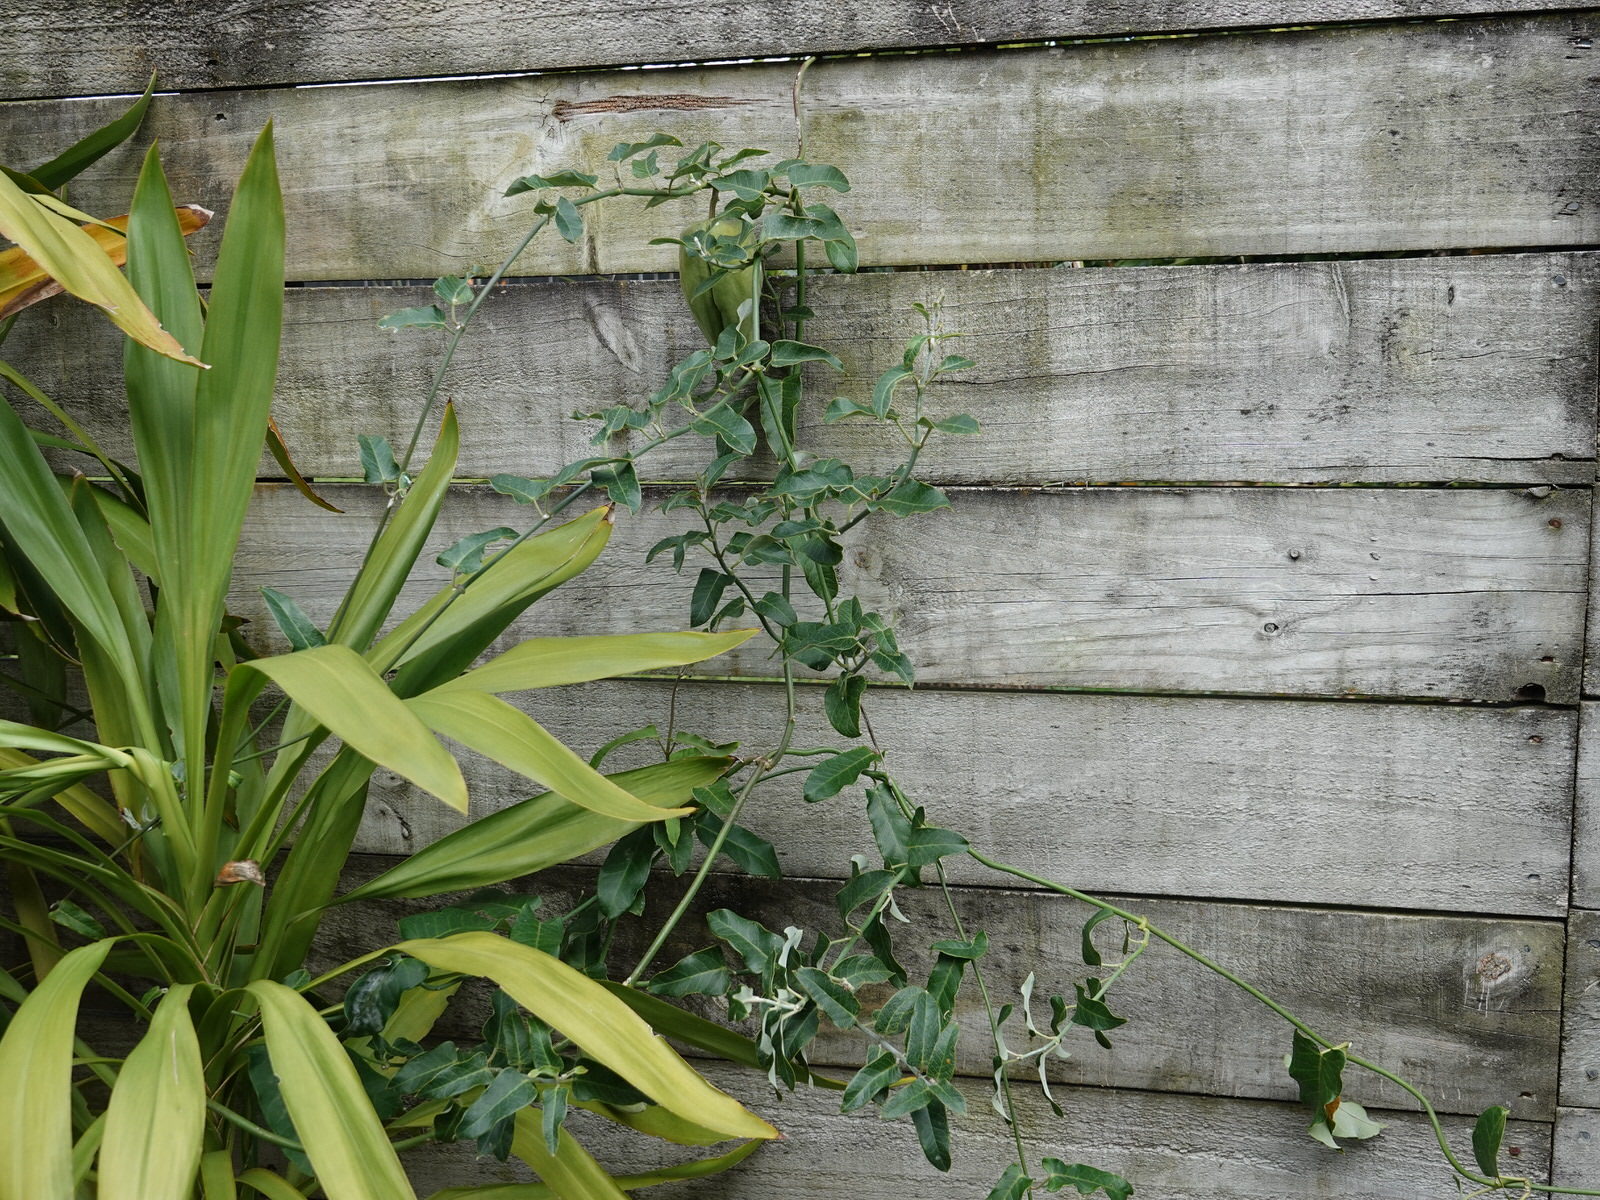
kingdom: Plantae
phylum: Tracheophyta
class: Magnoliopsida
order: Gentianales
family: Apocynaceae
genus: Araujia
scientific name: Araujia sericifera
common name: White bladderflower
